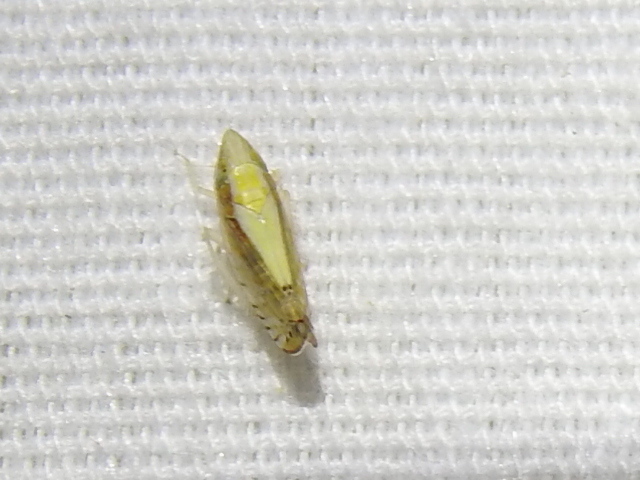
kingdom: Animalia
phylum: Arthropoda
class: Insecta
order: Hemiptera
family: Cicadellidae
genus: Scaphytopius
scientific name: Scaphytopius elegans
